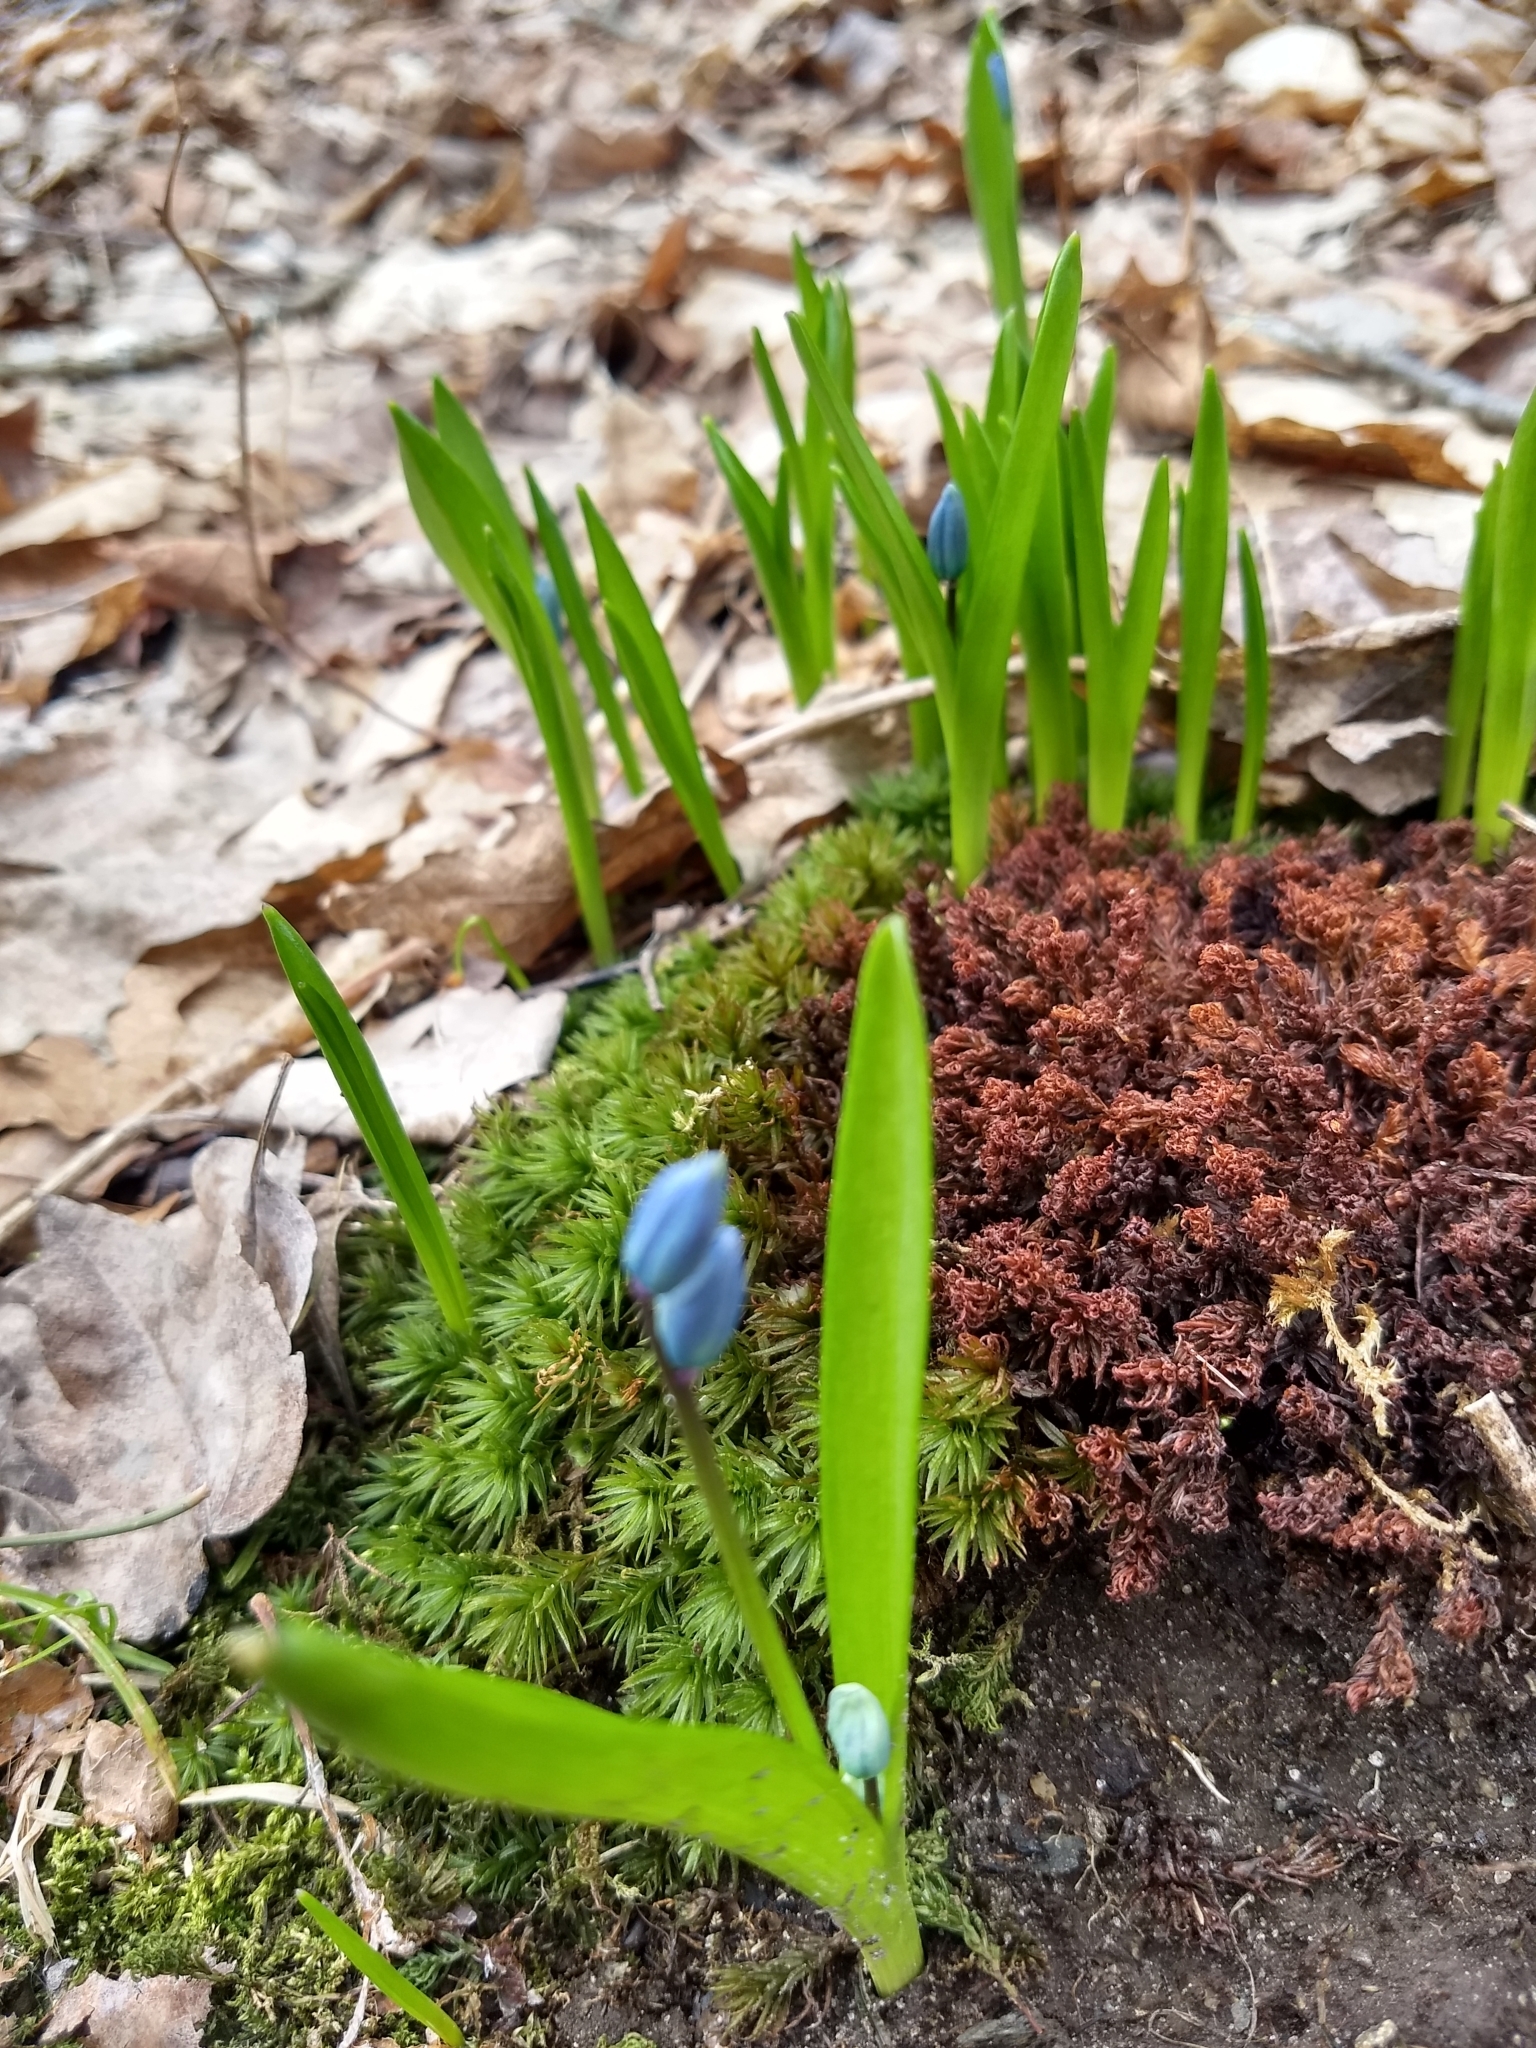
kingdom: Plantae
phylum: Tracheophyta
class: Liliopsida
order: Asparagales
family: Asparagaceae
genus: Scilla
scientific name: Scilla siberica
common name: Siberian squill
